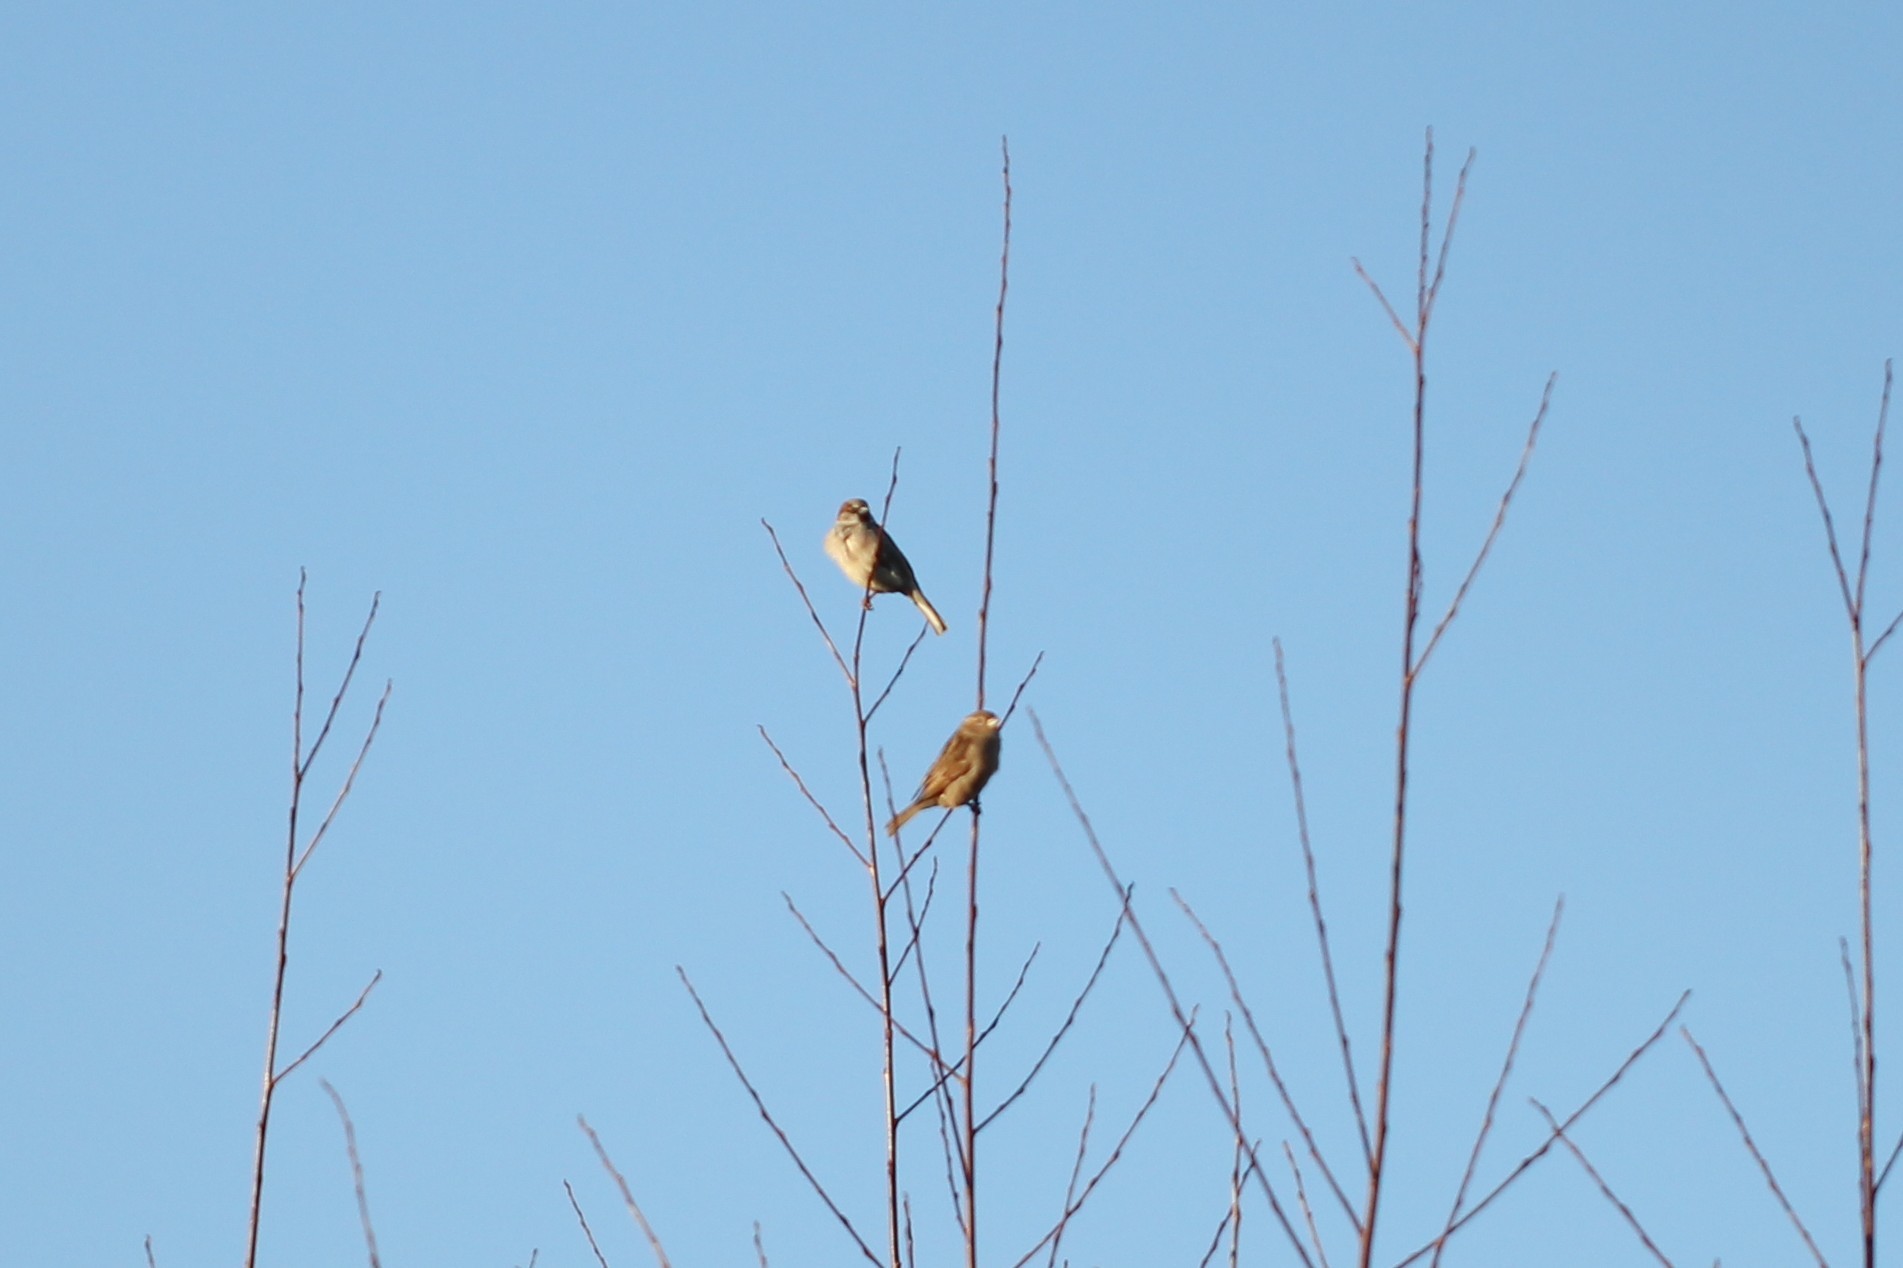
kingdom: Animalia
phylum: Chordata
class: Aves
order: Passeriformes
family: Passeridae
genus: Passer
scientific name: Passer domesticus
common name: House sparrow
